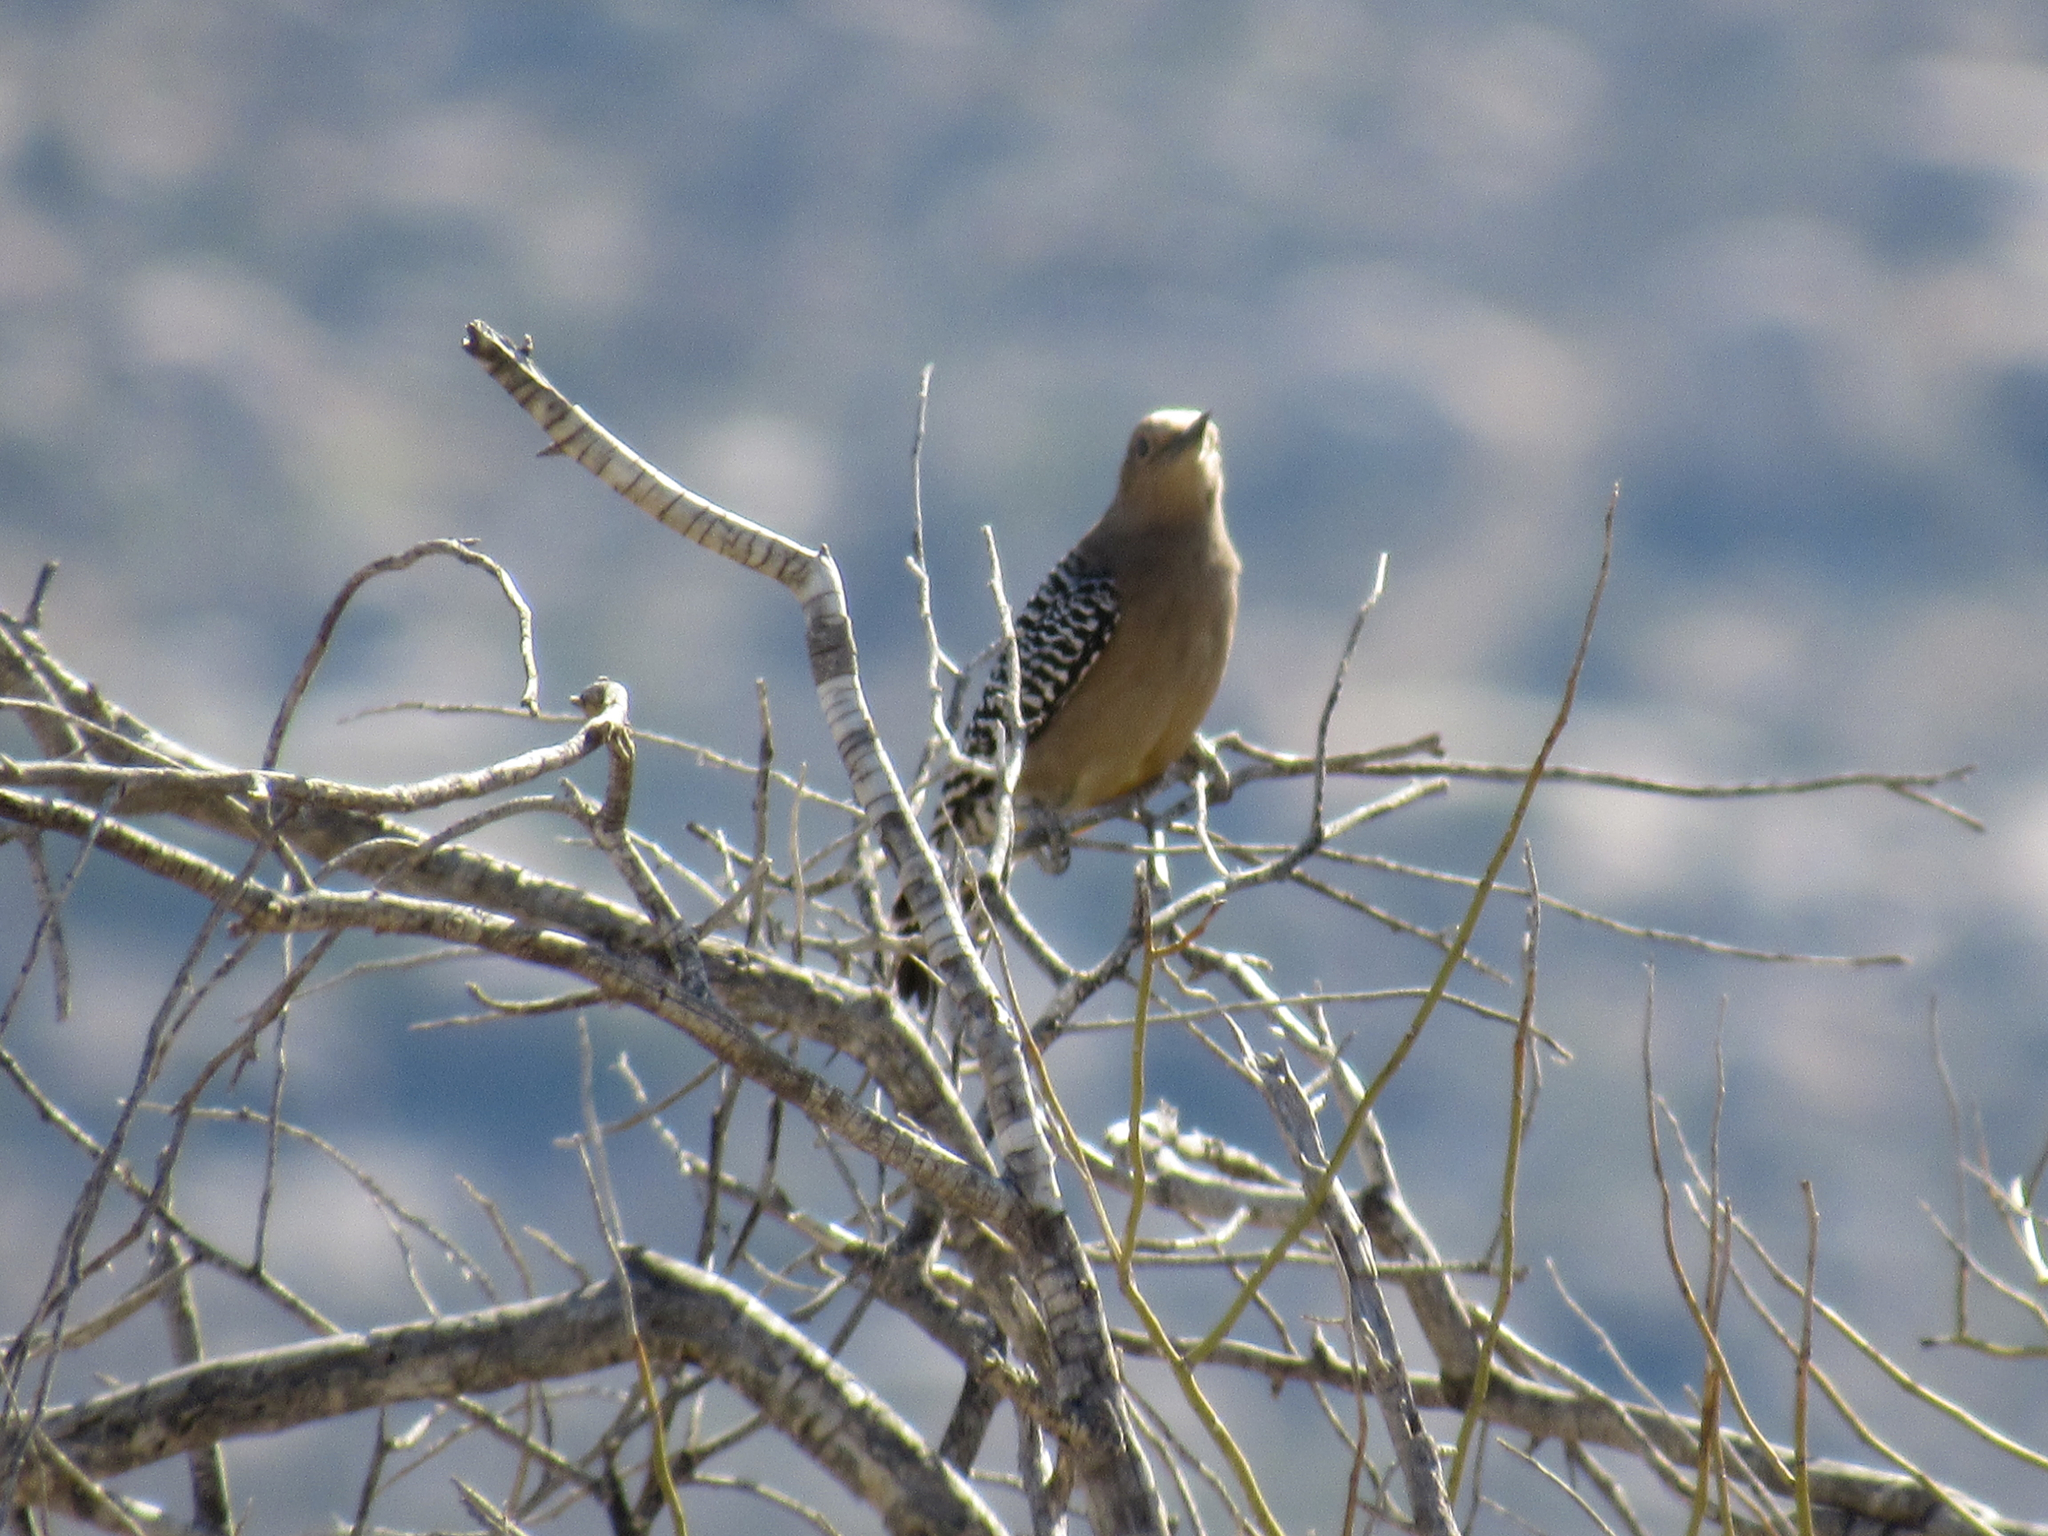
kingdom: Animalia
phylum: Chordata
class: Aves
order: Piciformes
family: Picidae
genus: Melanerpes
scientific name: Melanerpes uropygialis
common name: Gila woodpecker
